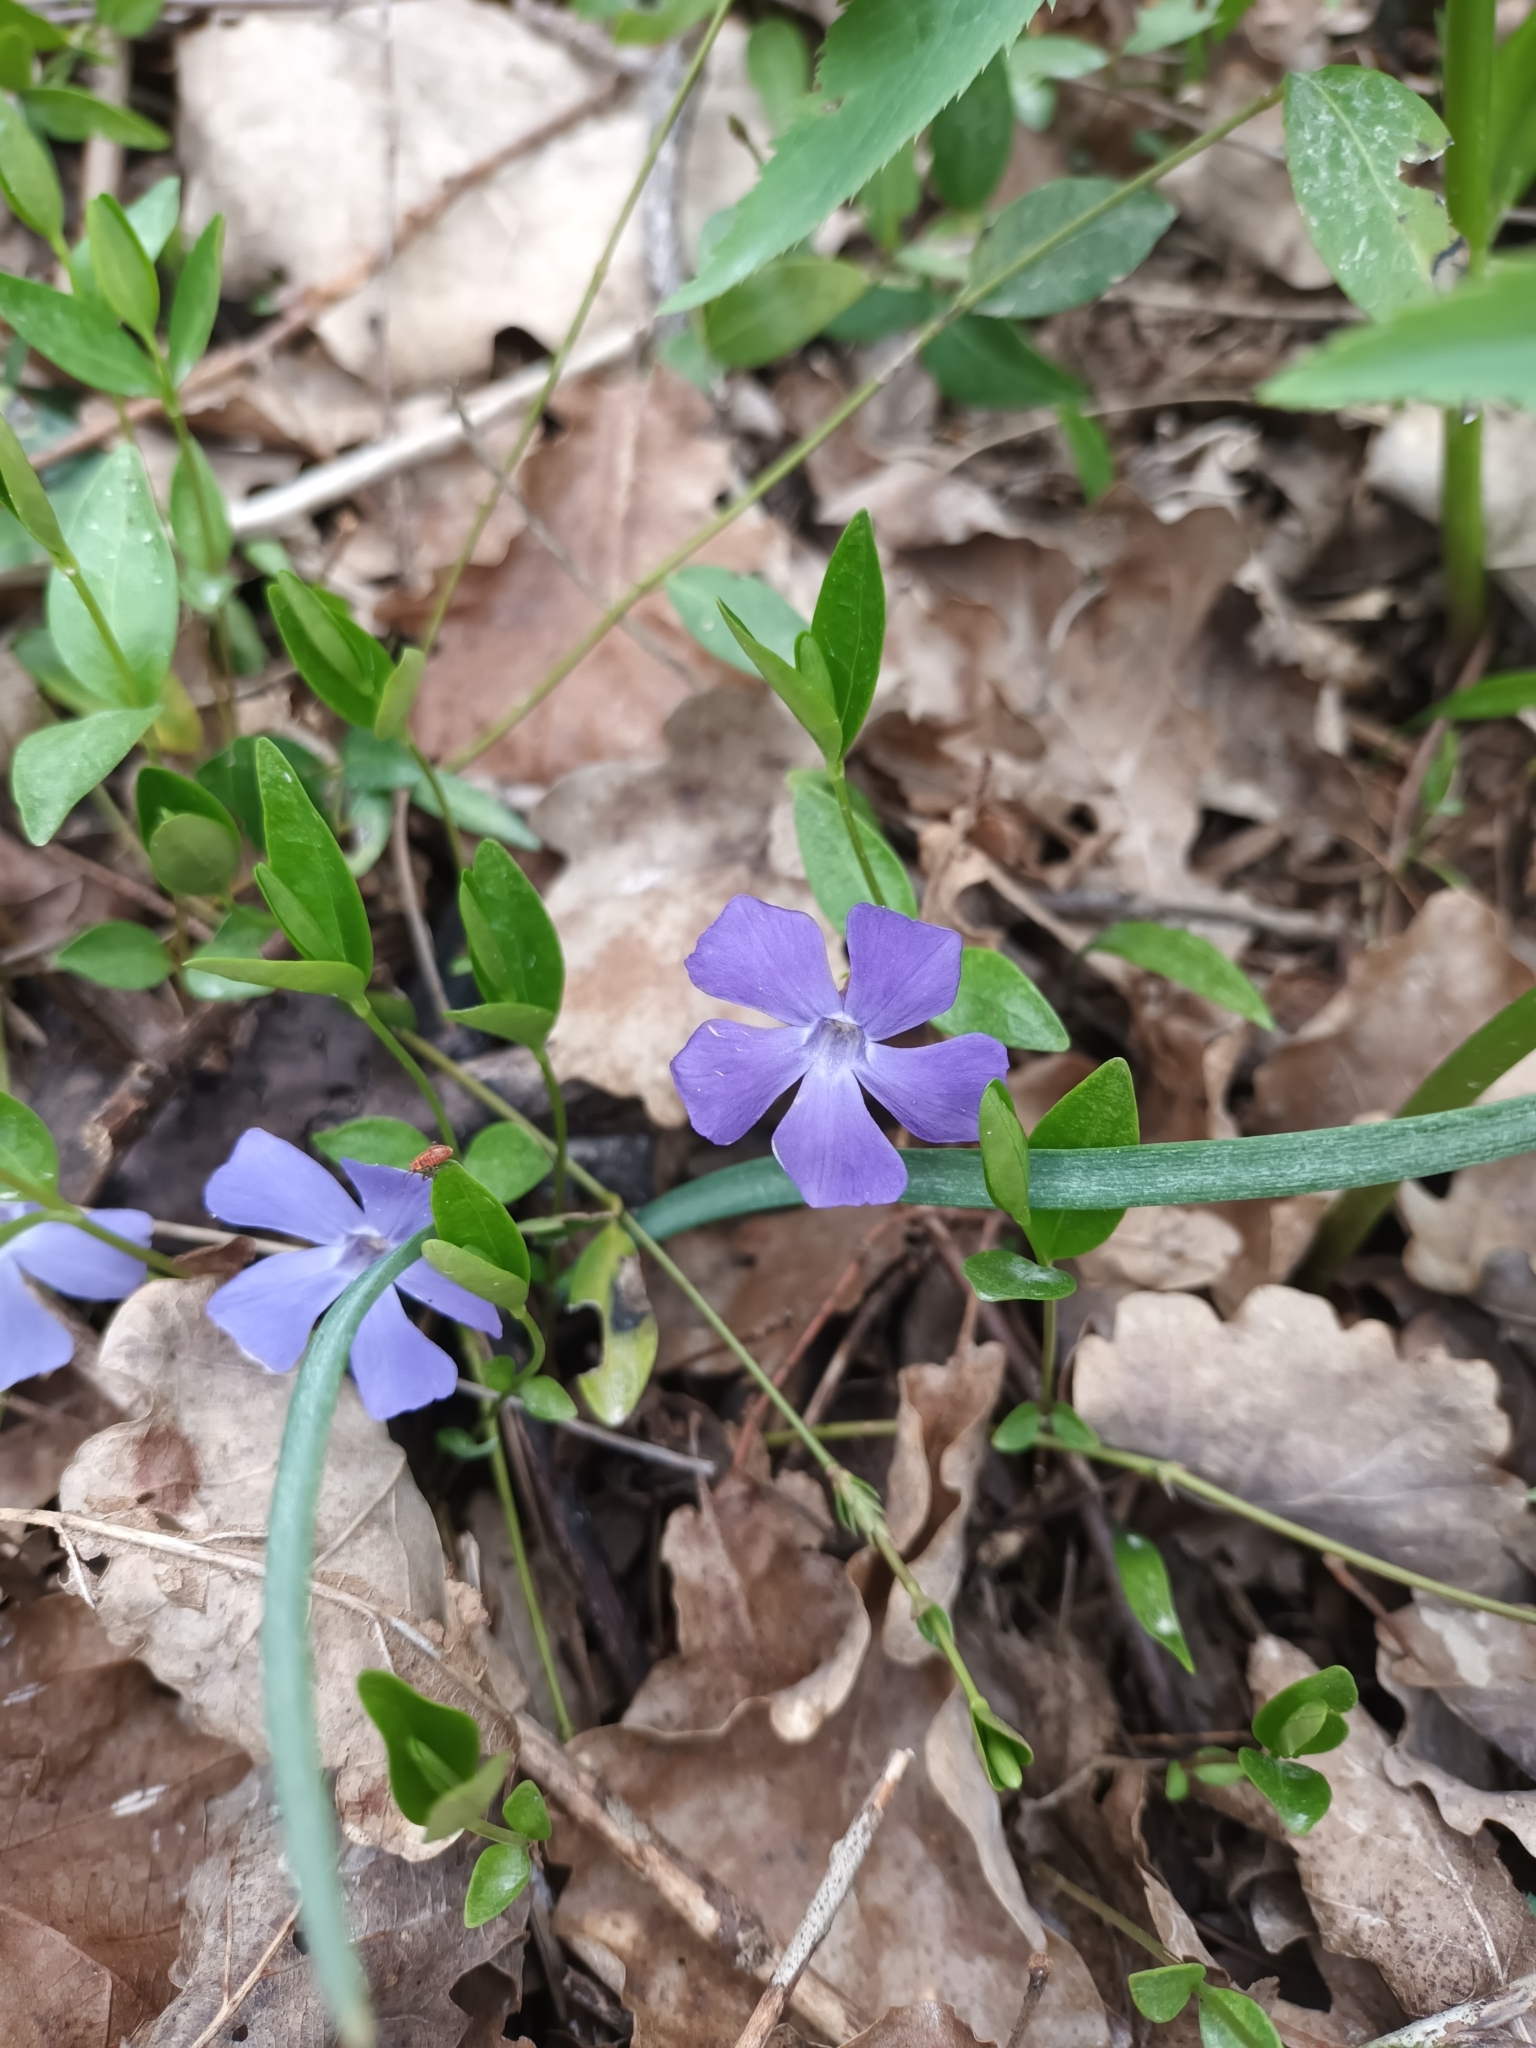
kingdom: Plantae
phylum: Tracheophyta
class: Magnoliopsida
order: Gentianales
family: Apocynaceae
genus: Vinca
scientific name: Vinca minor
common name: Lesser periwinkle
